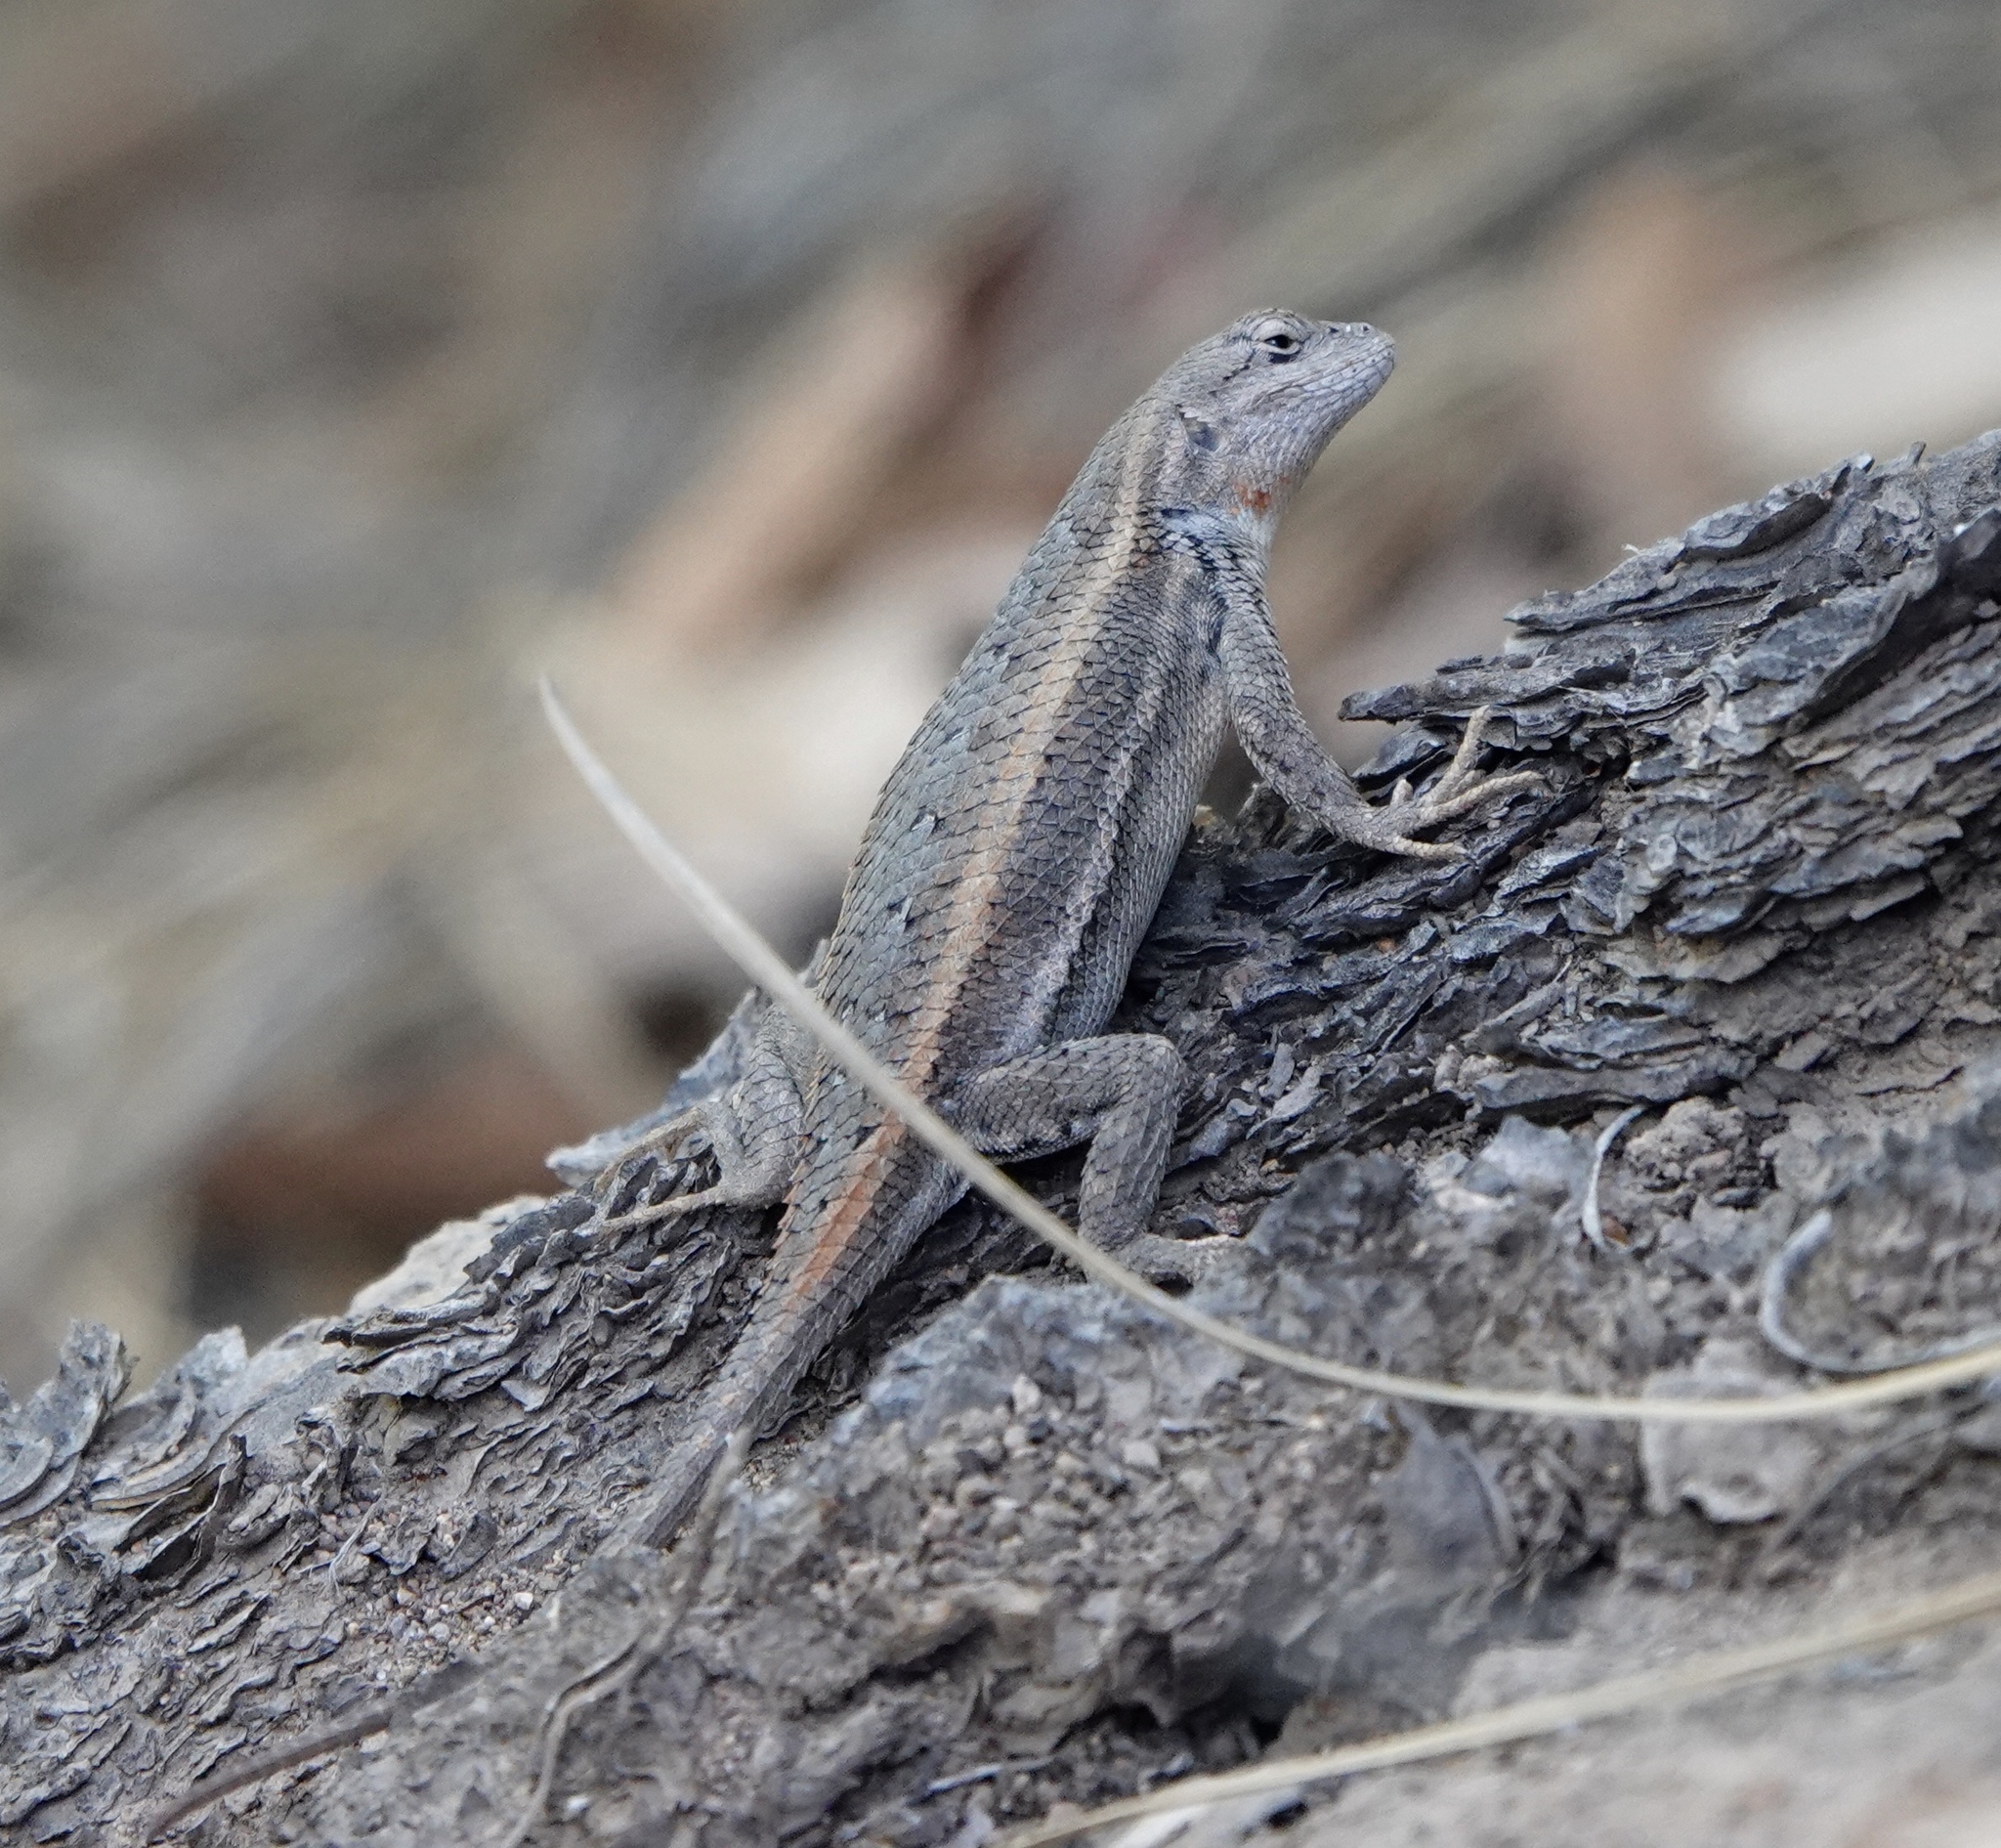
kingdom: Animalia
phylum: Chordata
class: Squamata
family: Phrynosomatidae
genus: Sceloporus
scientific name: Sceloporus virgatus
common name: Striped plateau lizard
